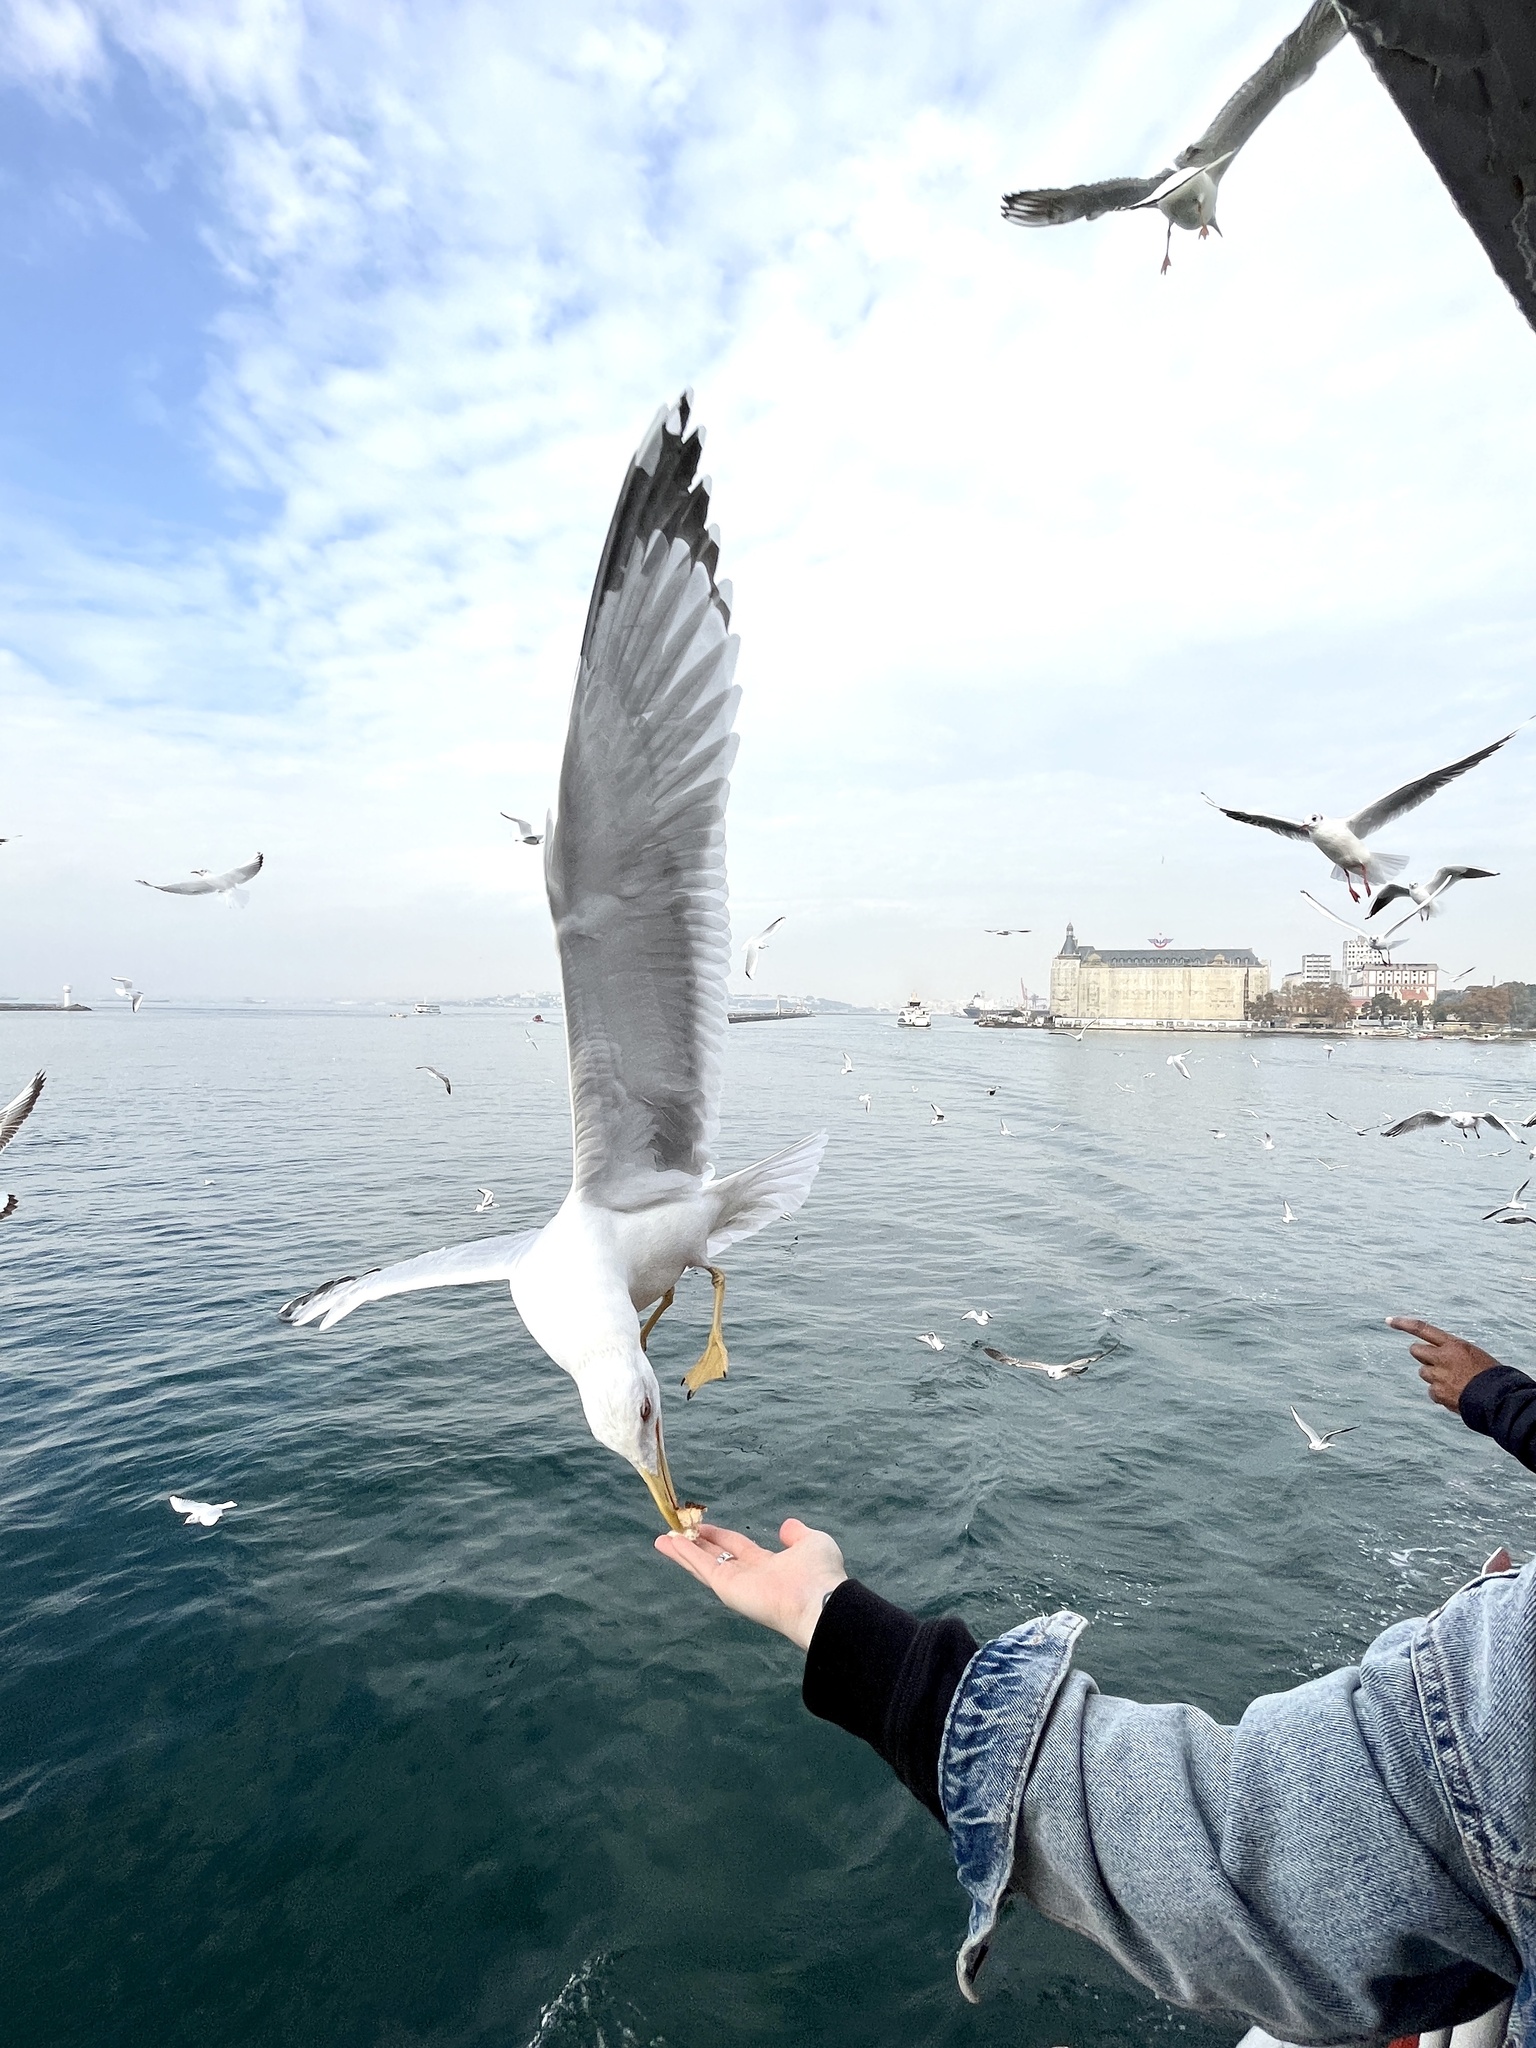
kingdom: Animalia
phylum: Chordata
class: Aves
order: Charadriiformes
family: Laridae
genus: Larus
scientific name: Larus michahellis
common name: Yellow-legged gull
